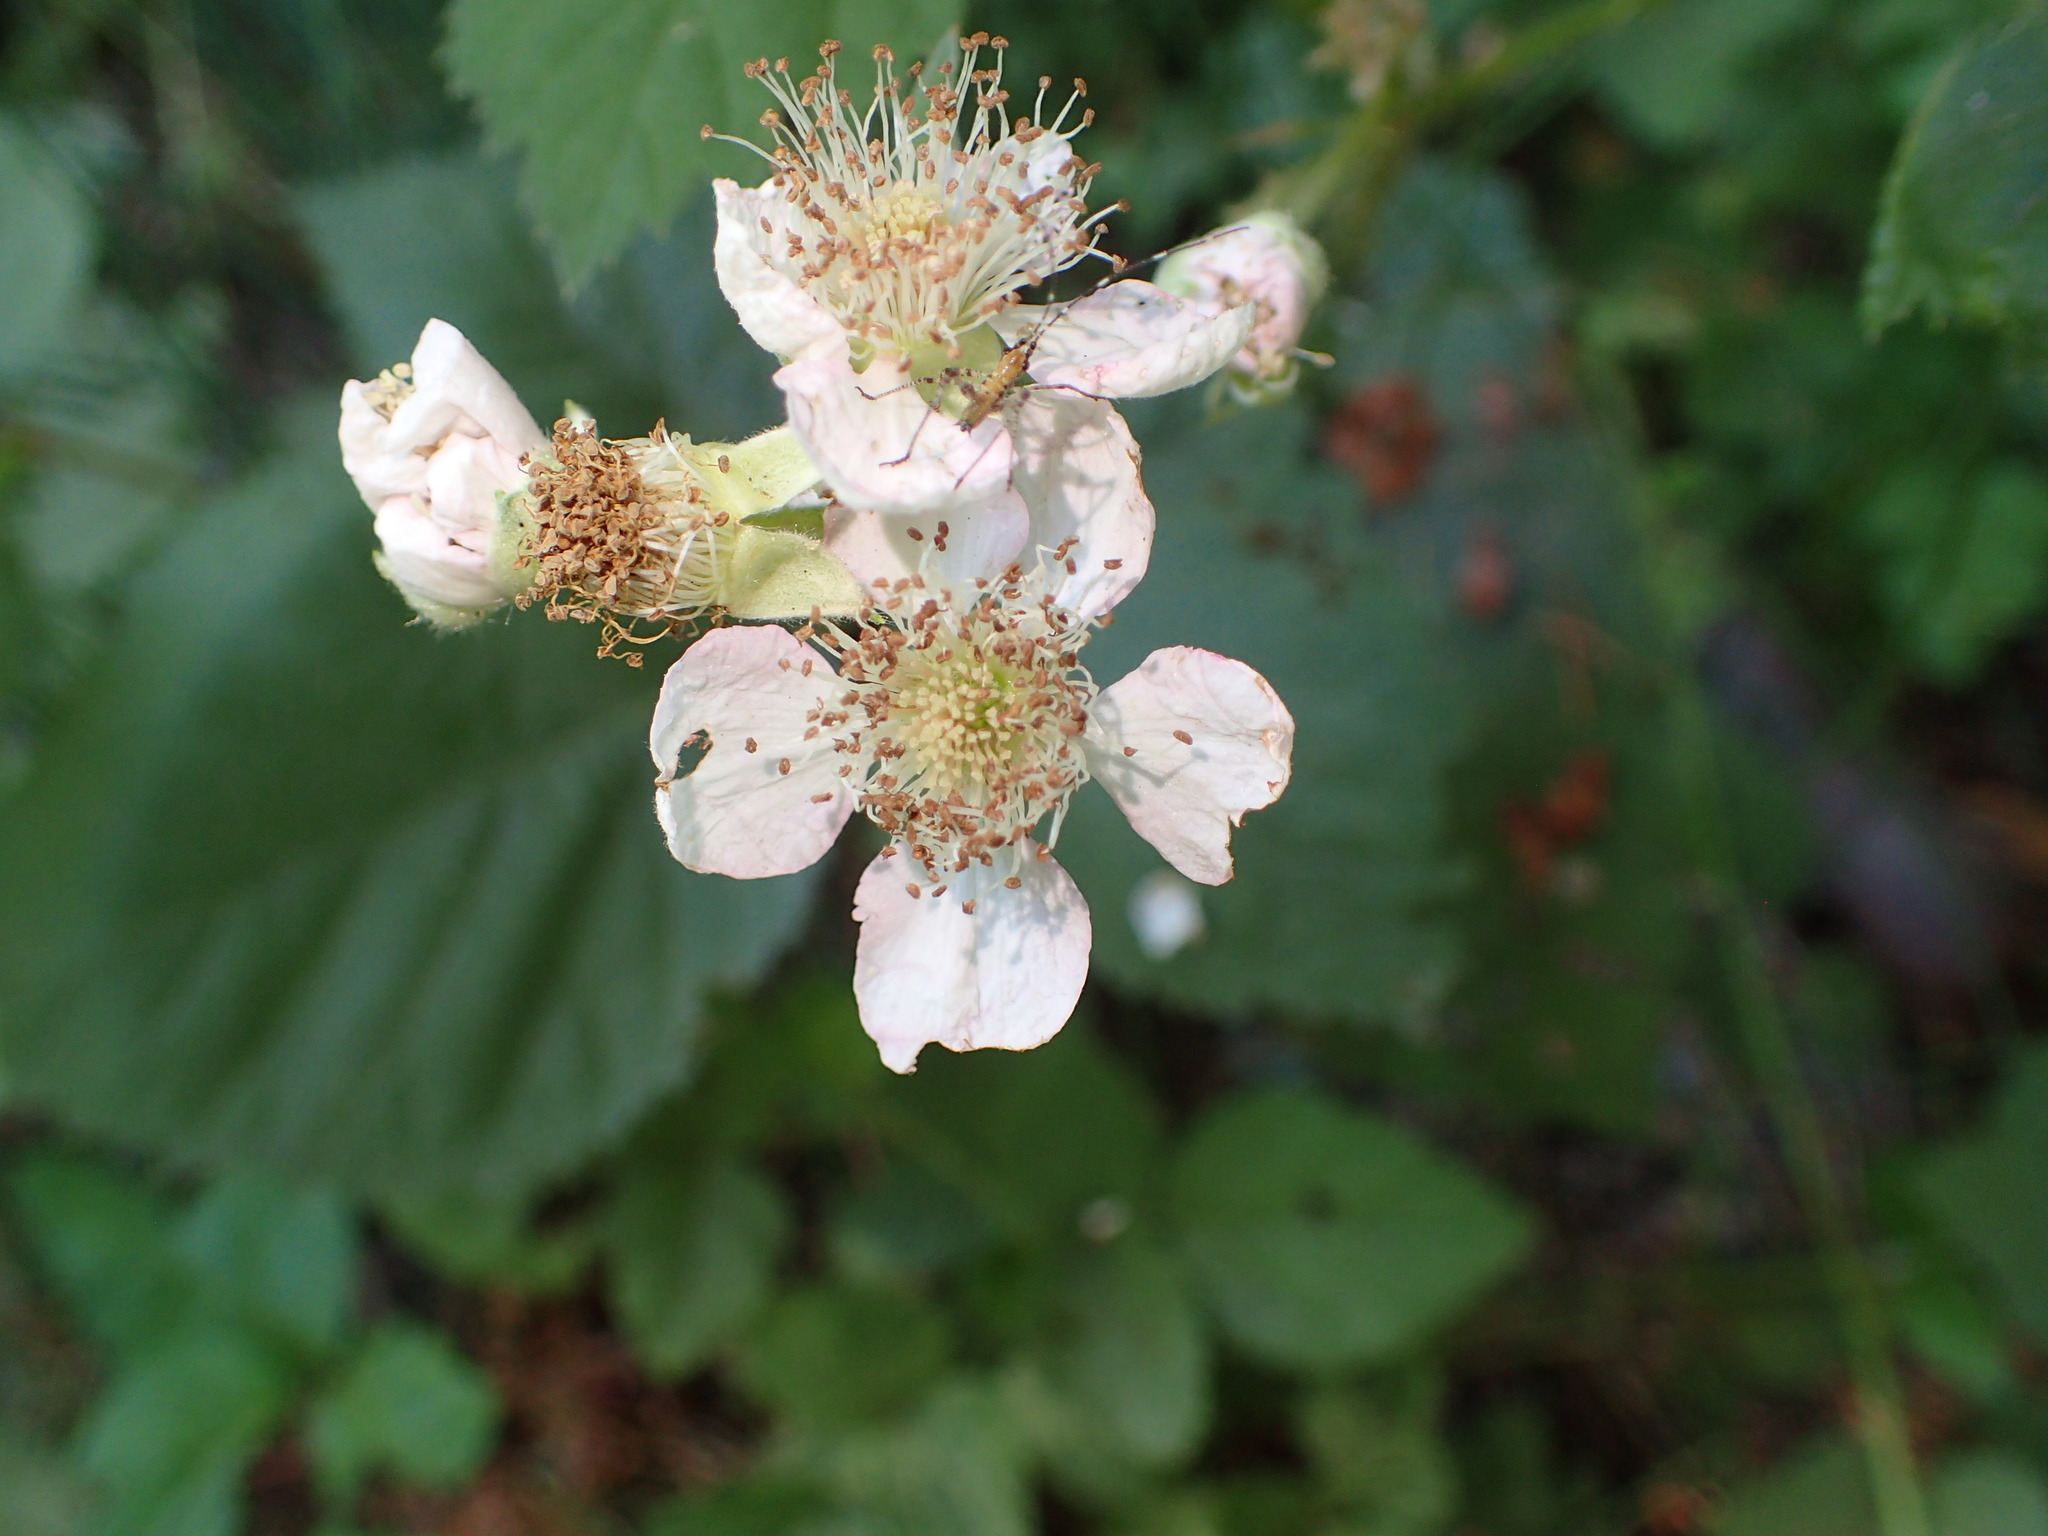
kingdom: Plantae
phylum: Tracheophyta
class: Magnoliopsida
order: Rosales
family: Rosaceae
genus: Rubus
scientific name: Rubus armeniacus
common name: Himalayan blackberry
